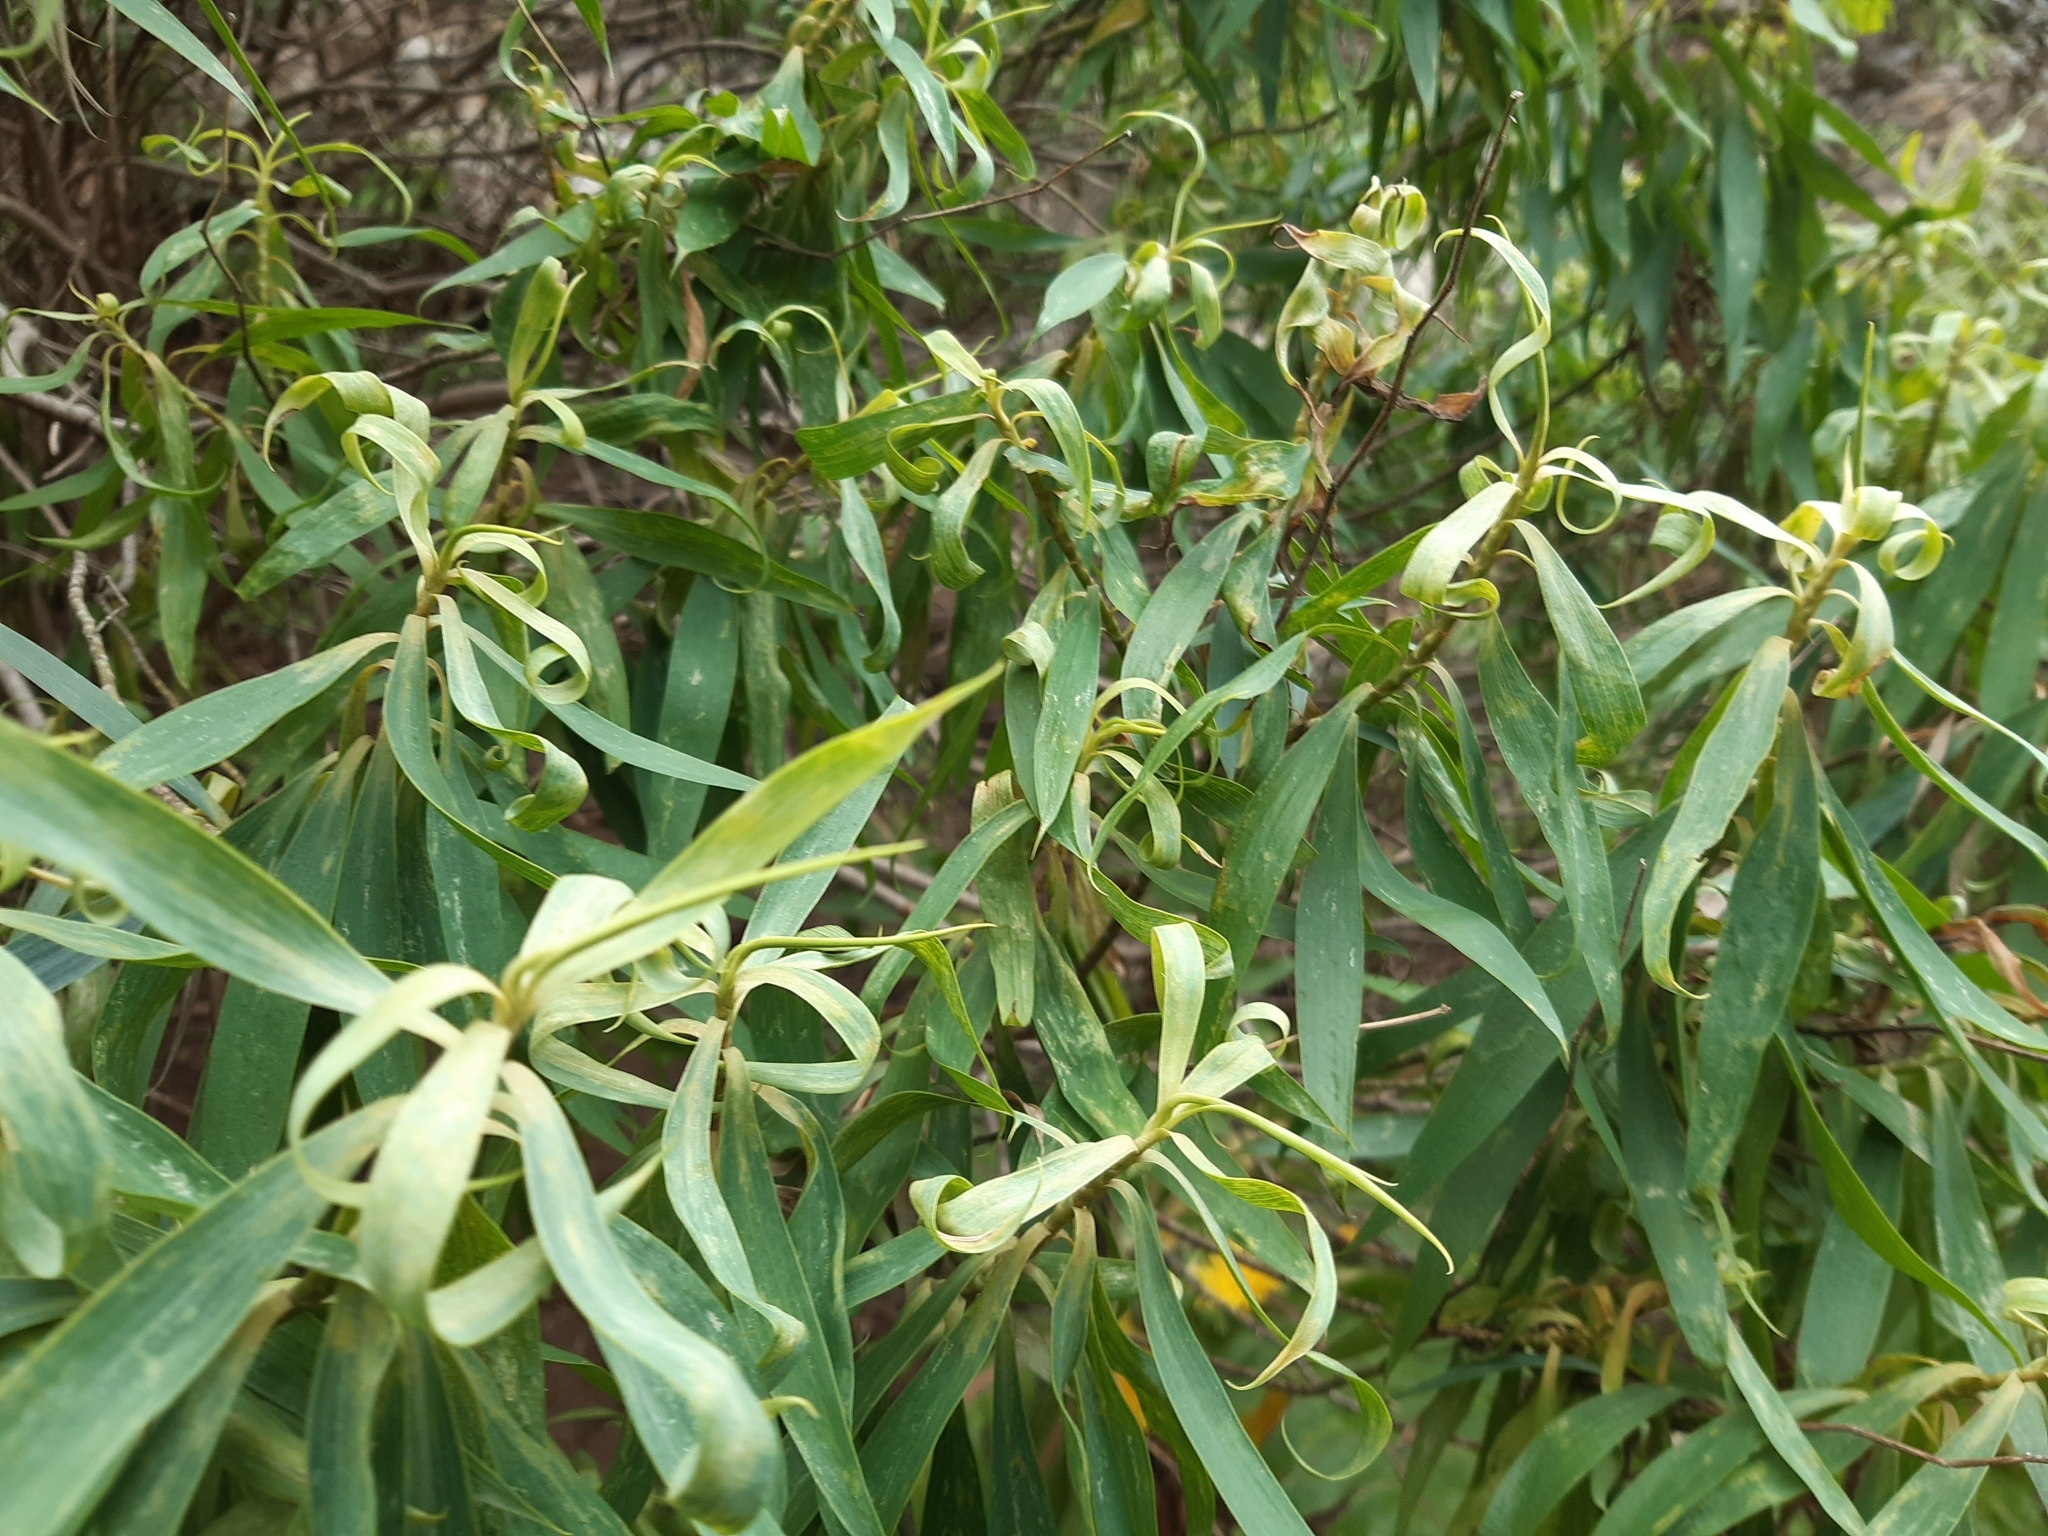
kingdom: Plantae
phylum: Tracheophyta
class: Magnoliopsida
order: Apiales
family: Apiaceae
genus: Bupleurum
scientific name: Bupleurum salicifolium
